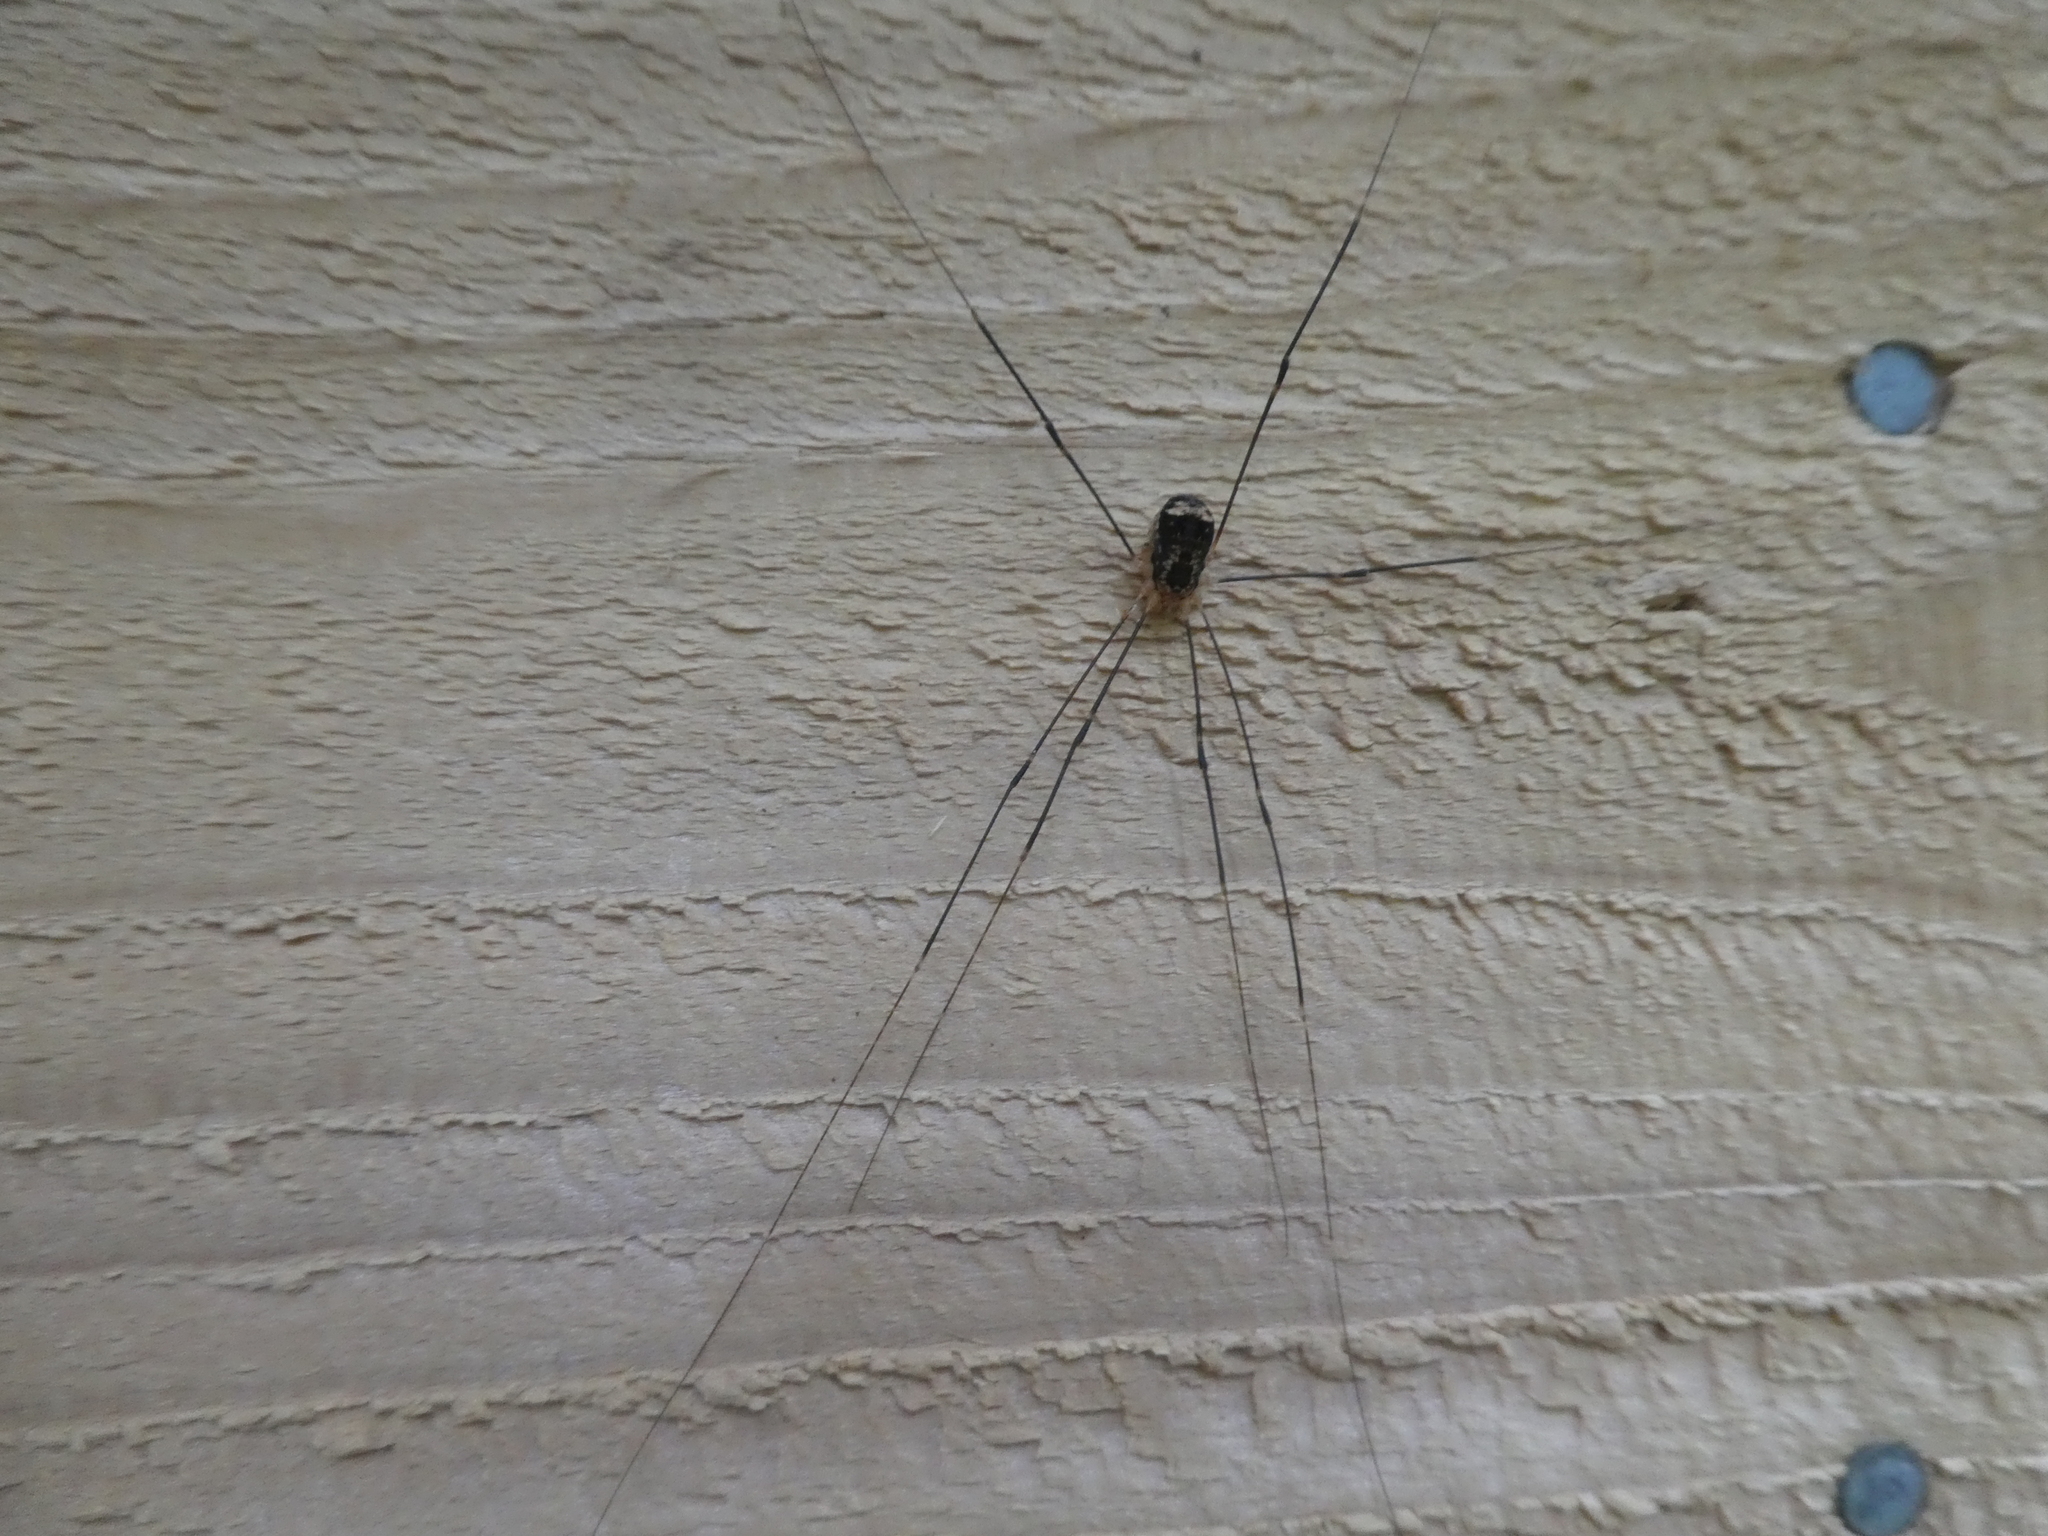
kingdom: Animalia
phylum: Arthropoda
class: Arachnida
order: Opiliones
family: Sclerosomatidae
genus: Nelima
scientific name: Nelima paessleri
